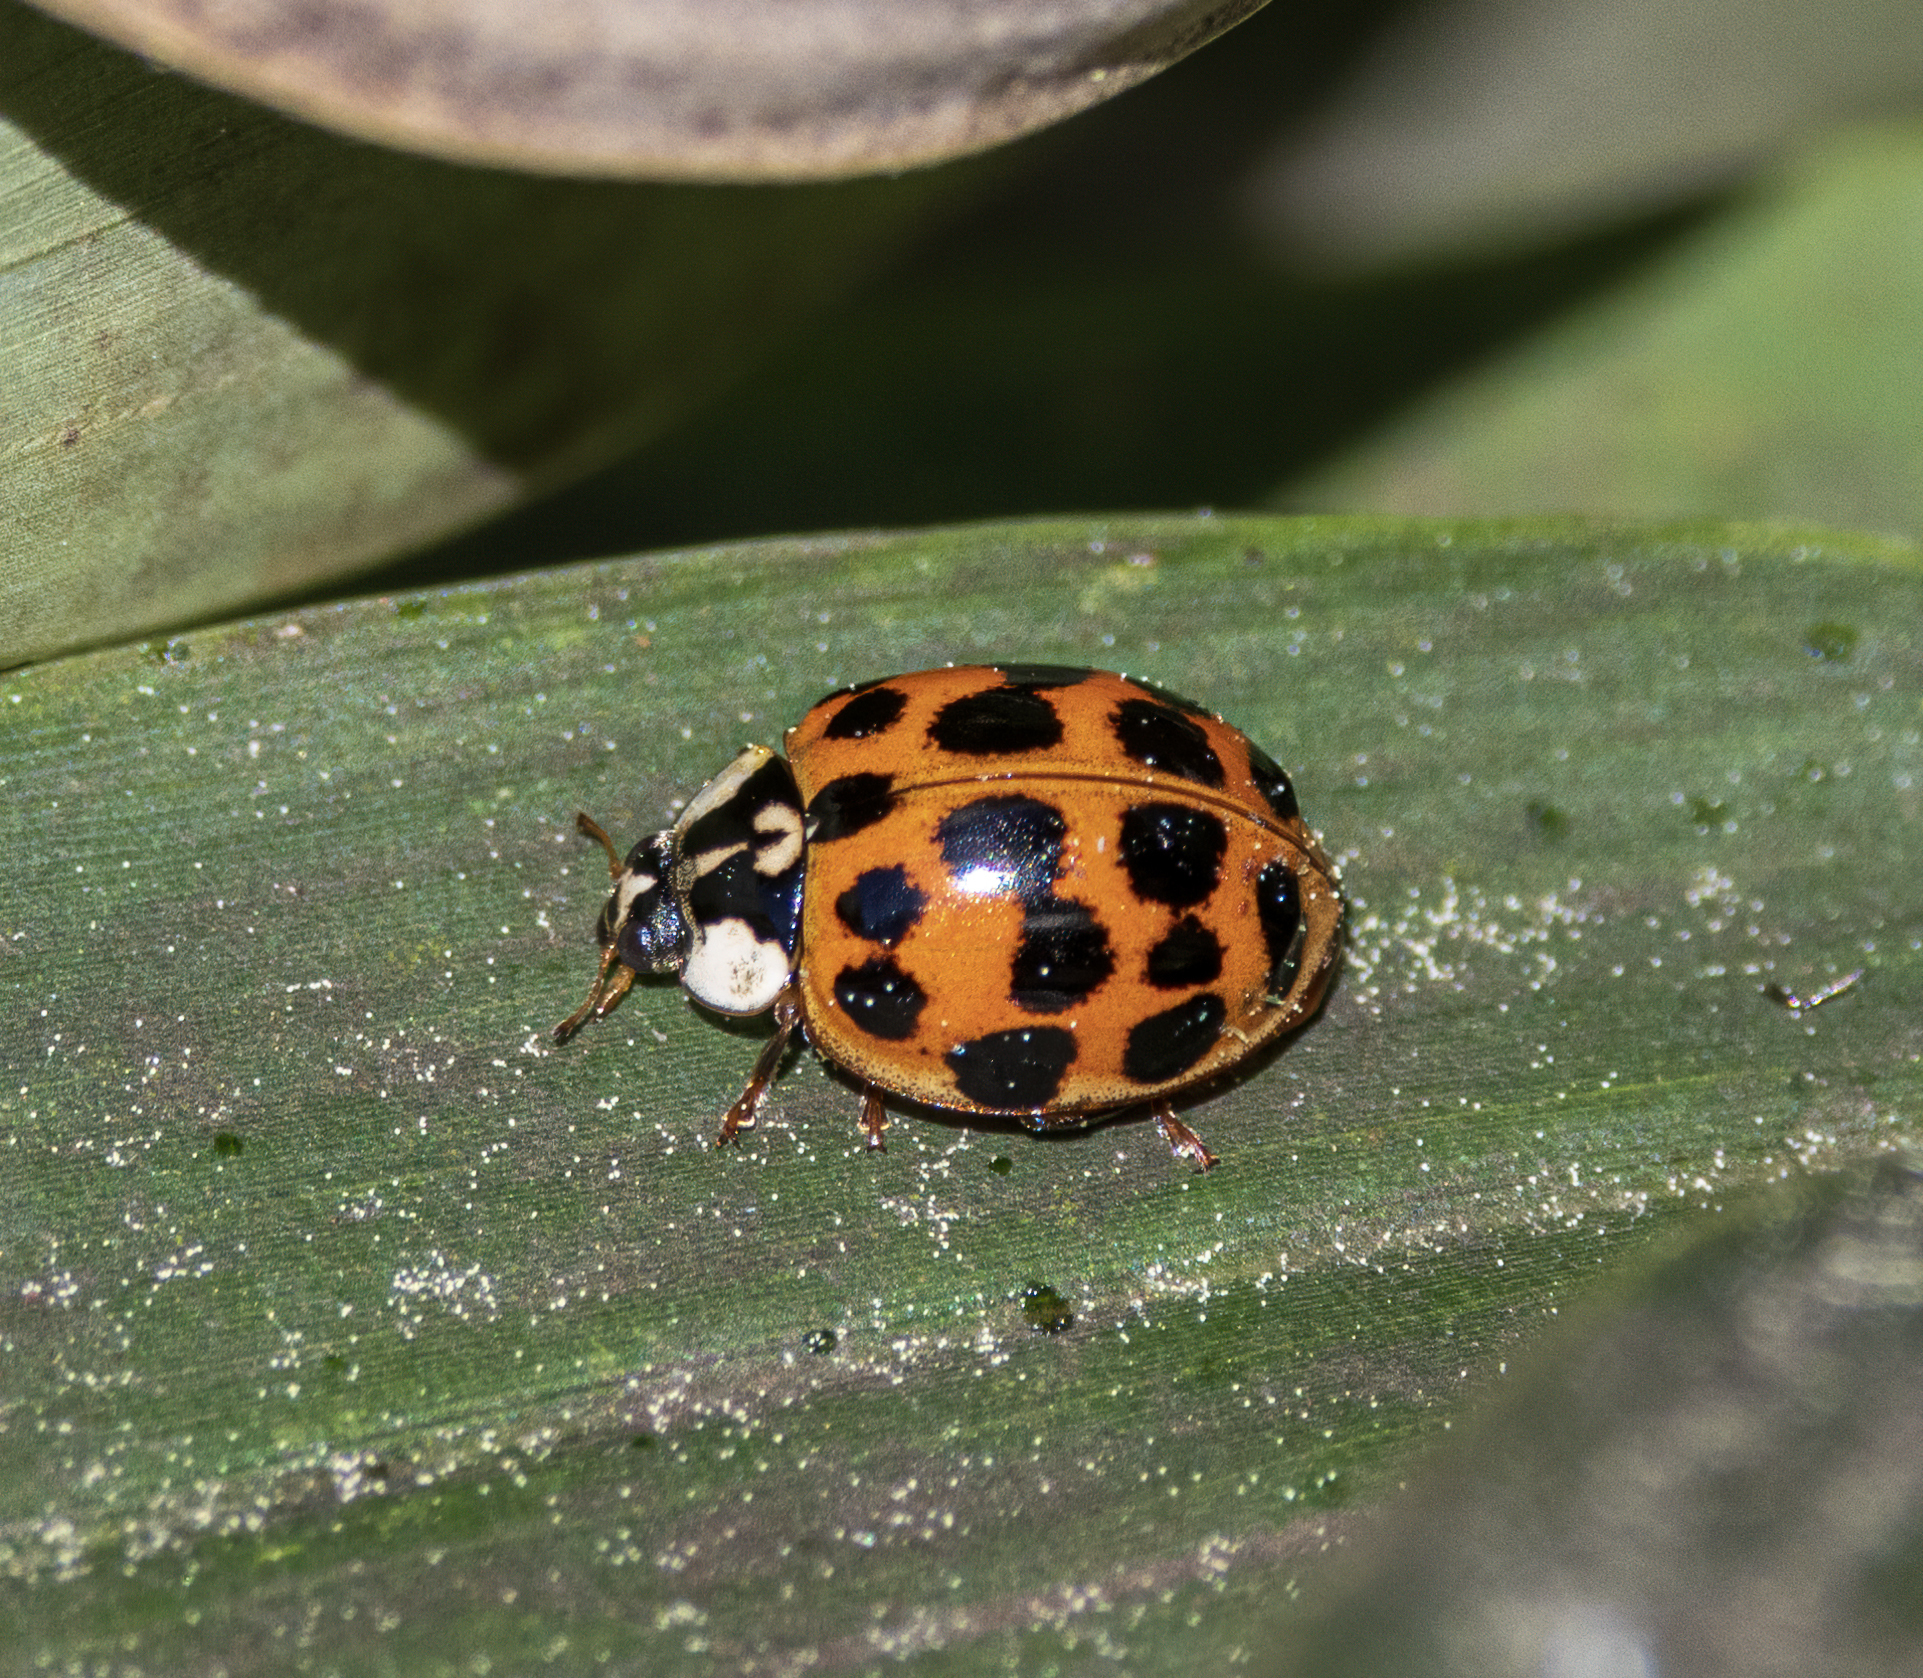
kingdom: Animalia
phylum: Arthropoda
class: Insecta
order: Coleoptera
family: Coccinellidae
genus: Harmonia
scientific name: Harmonia axyridis
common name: Harlequin ladybird
